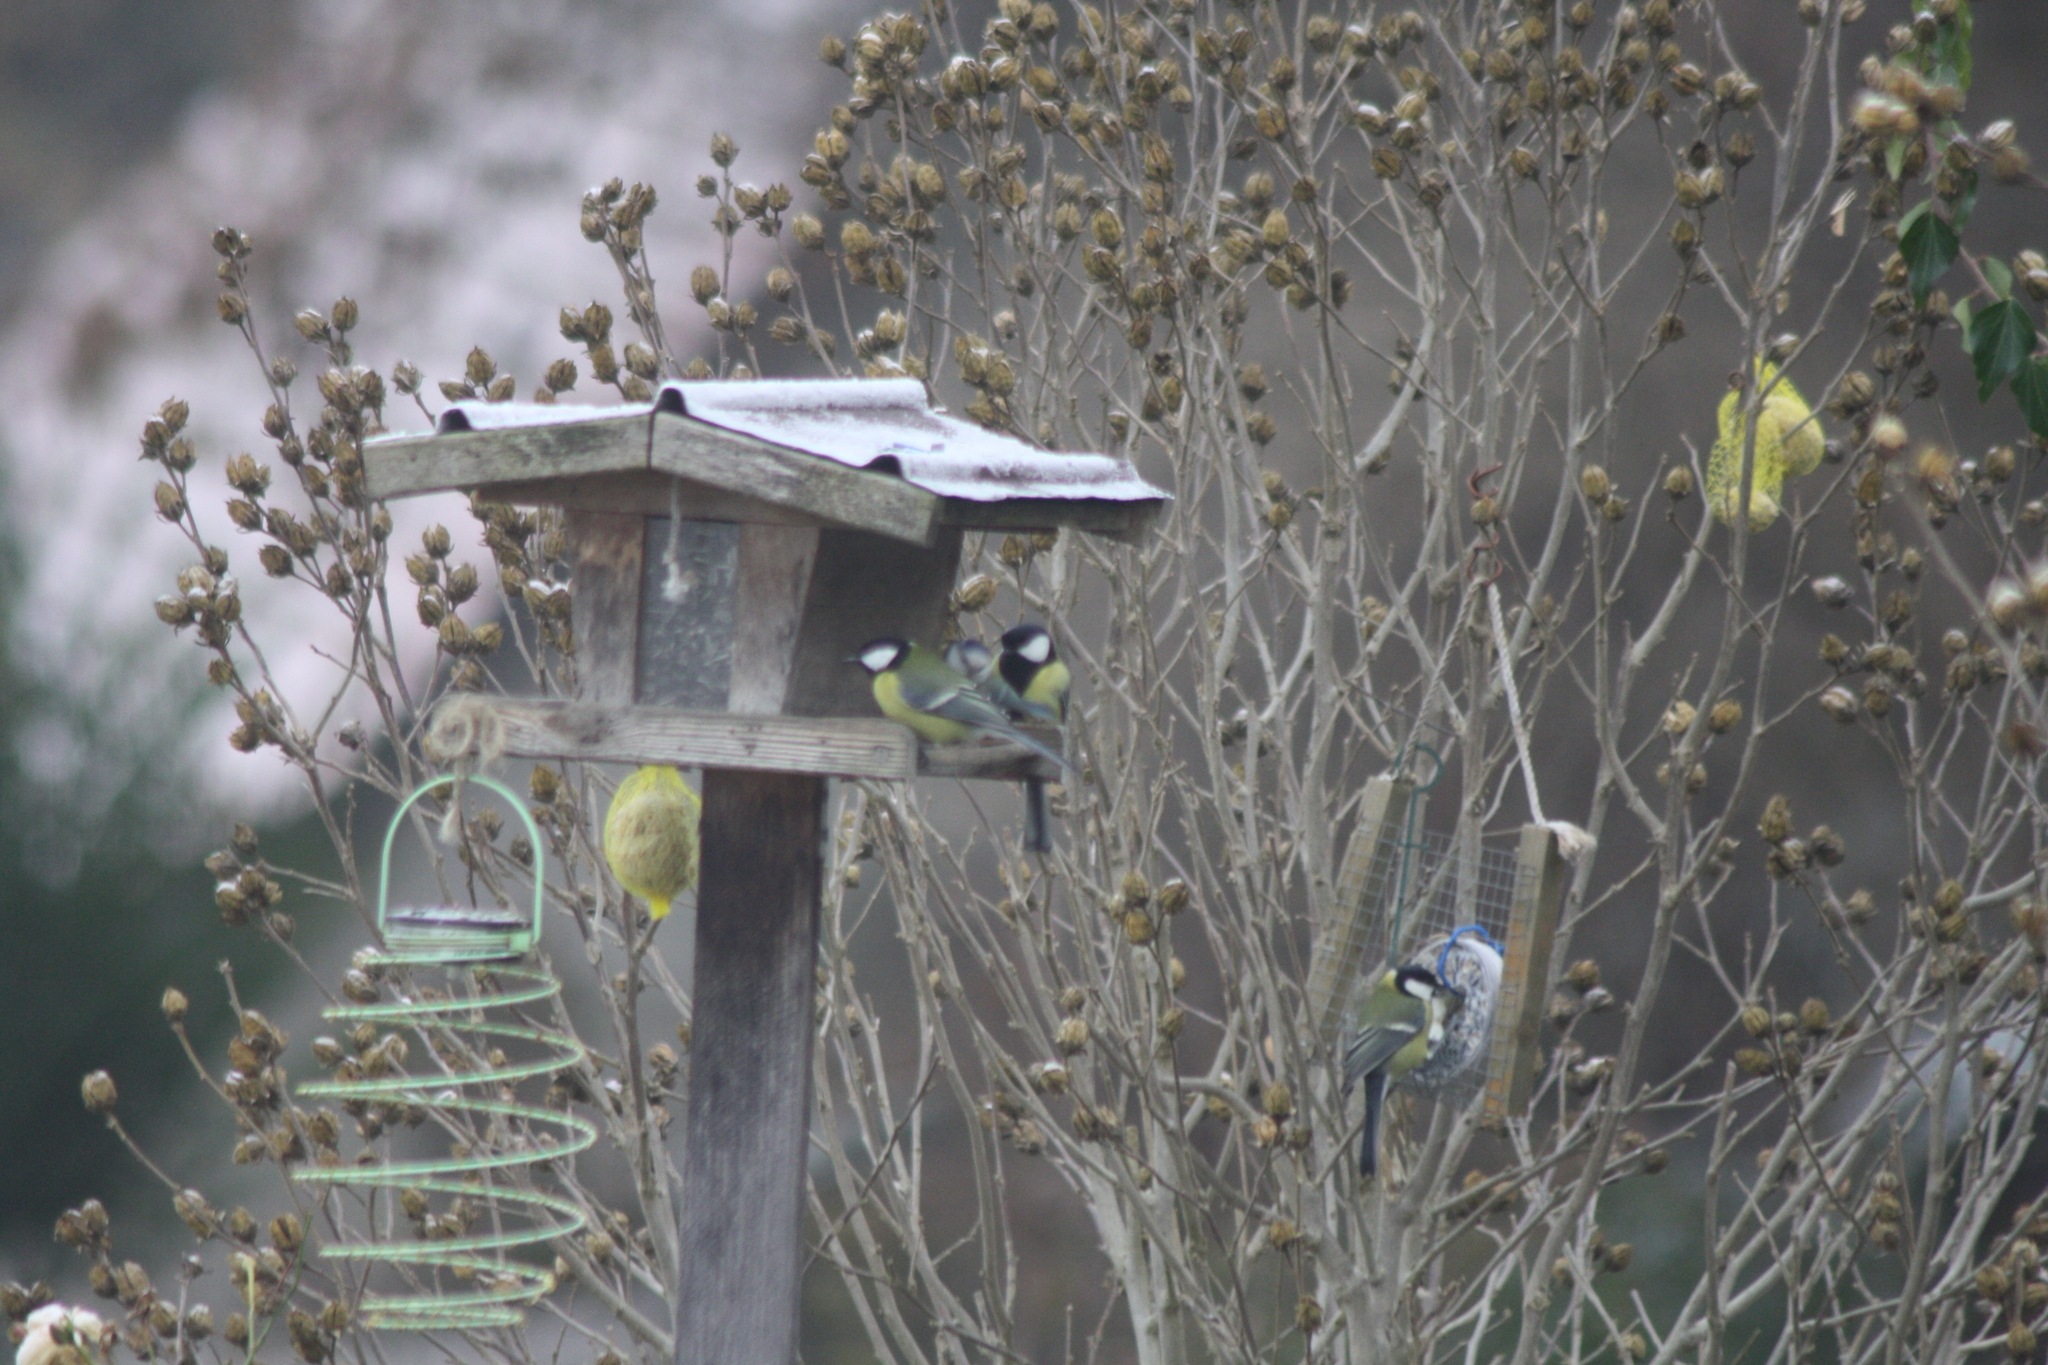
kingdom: Animalia
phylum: Chordata
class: Aves
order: Passeriformes
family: Paridae
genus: Parus
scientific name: Parus major
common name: Great tit
